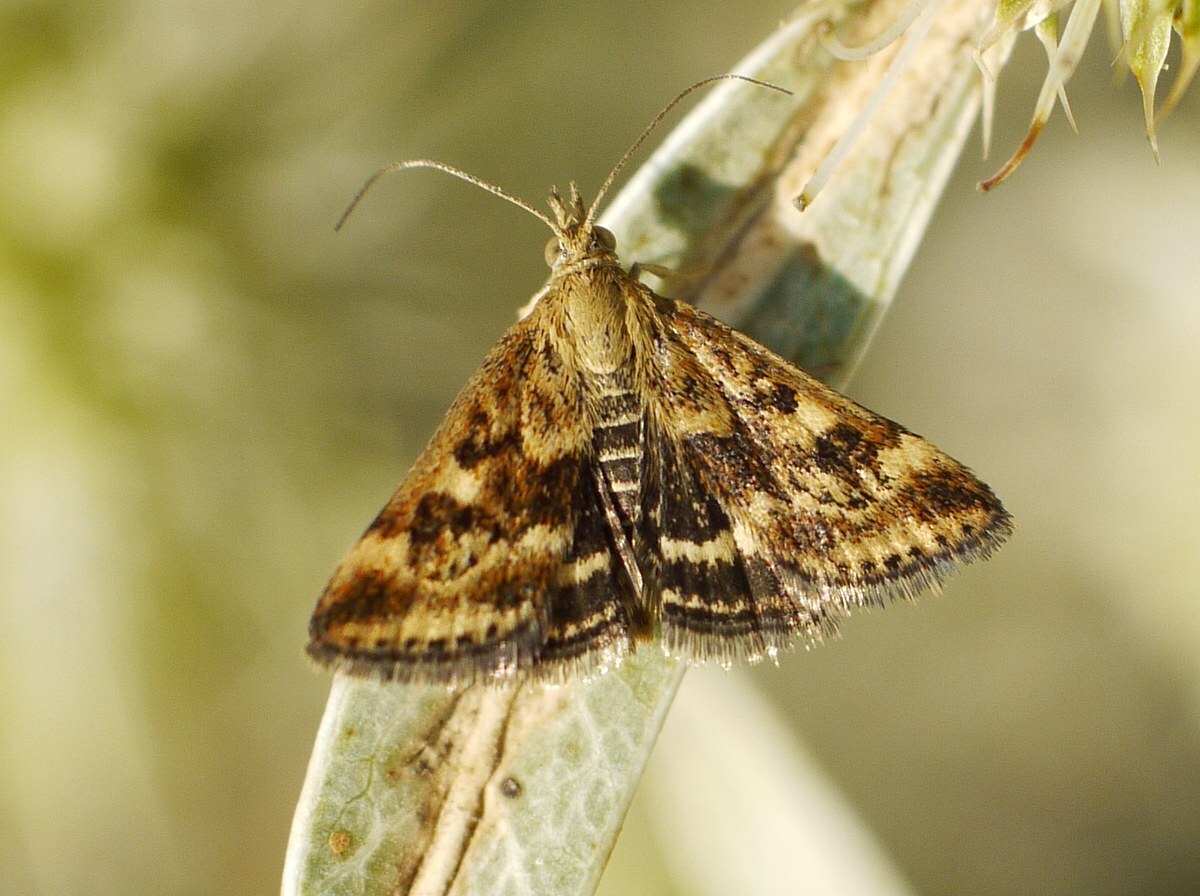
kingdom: Animalia
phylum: Arthropoda
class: Insecta
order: Lepidoptera
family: Crambidae
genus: Pyrausta
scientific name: Pyrausta despicata
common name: Straw-barred pearl
